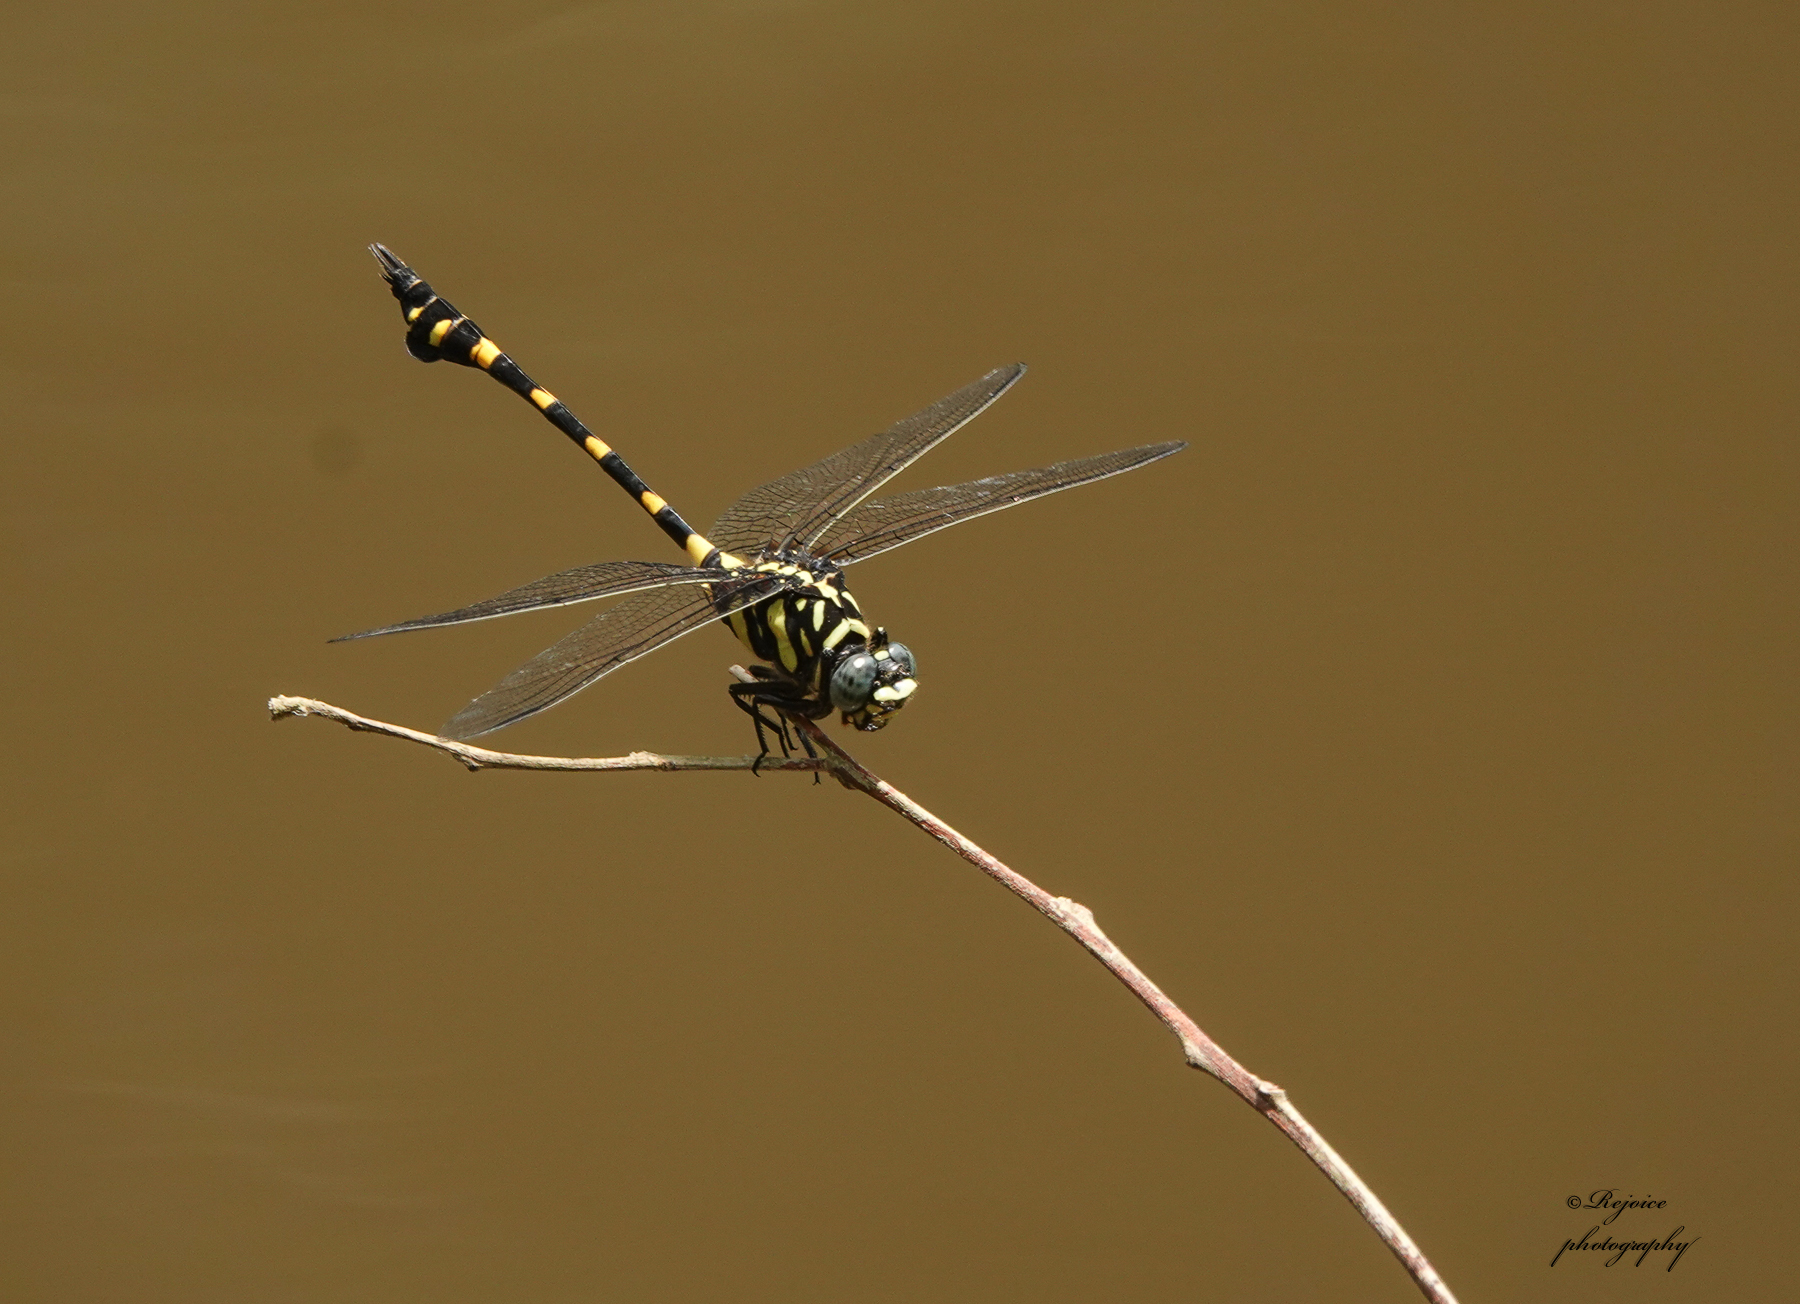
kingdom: Animalia
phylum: Arthropoda
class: Insecta
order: Odonata
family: Gomphidae
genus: Ictinogomphus
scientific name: Ictinogomphus rapax
